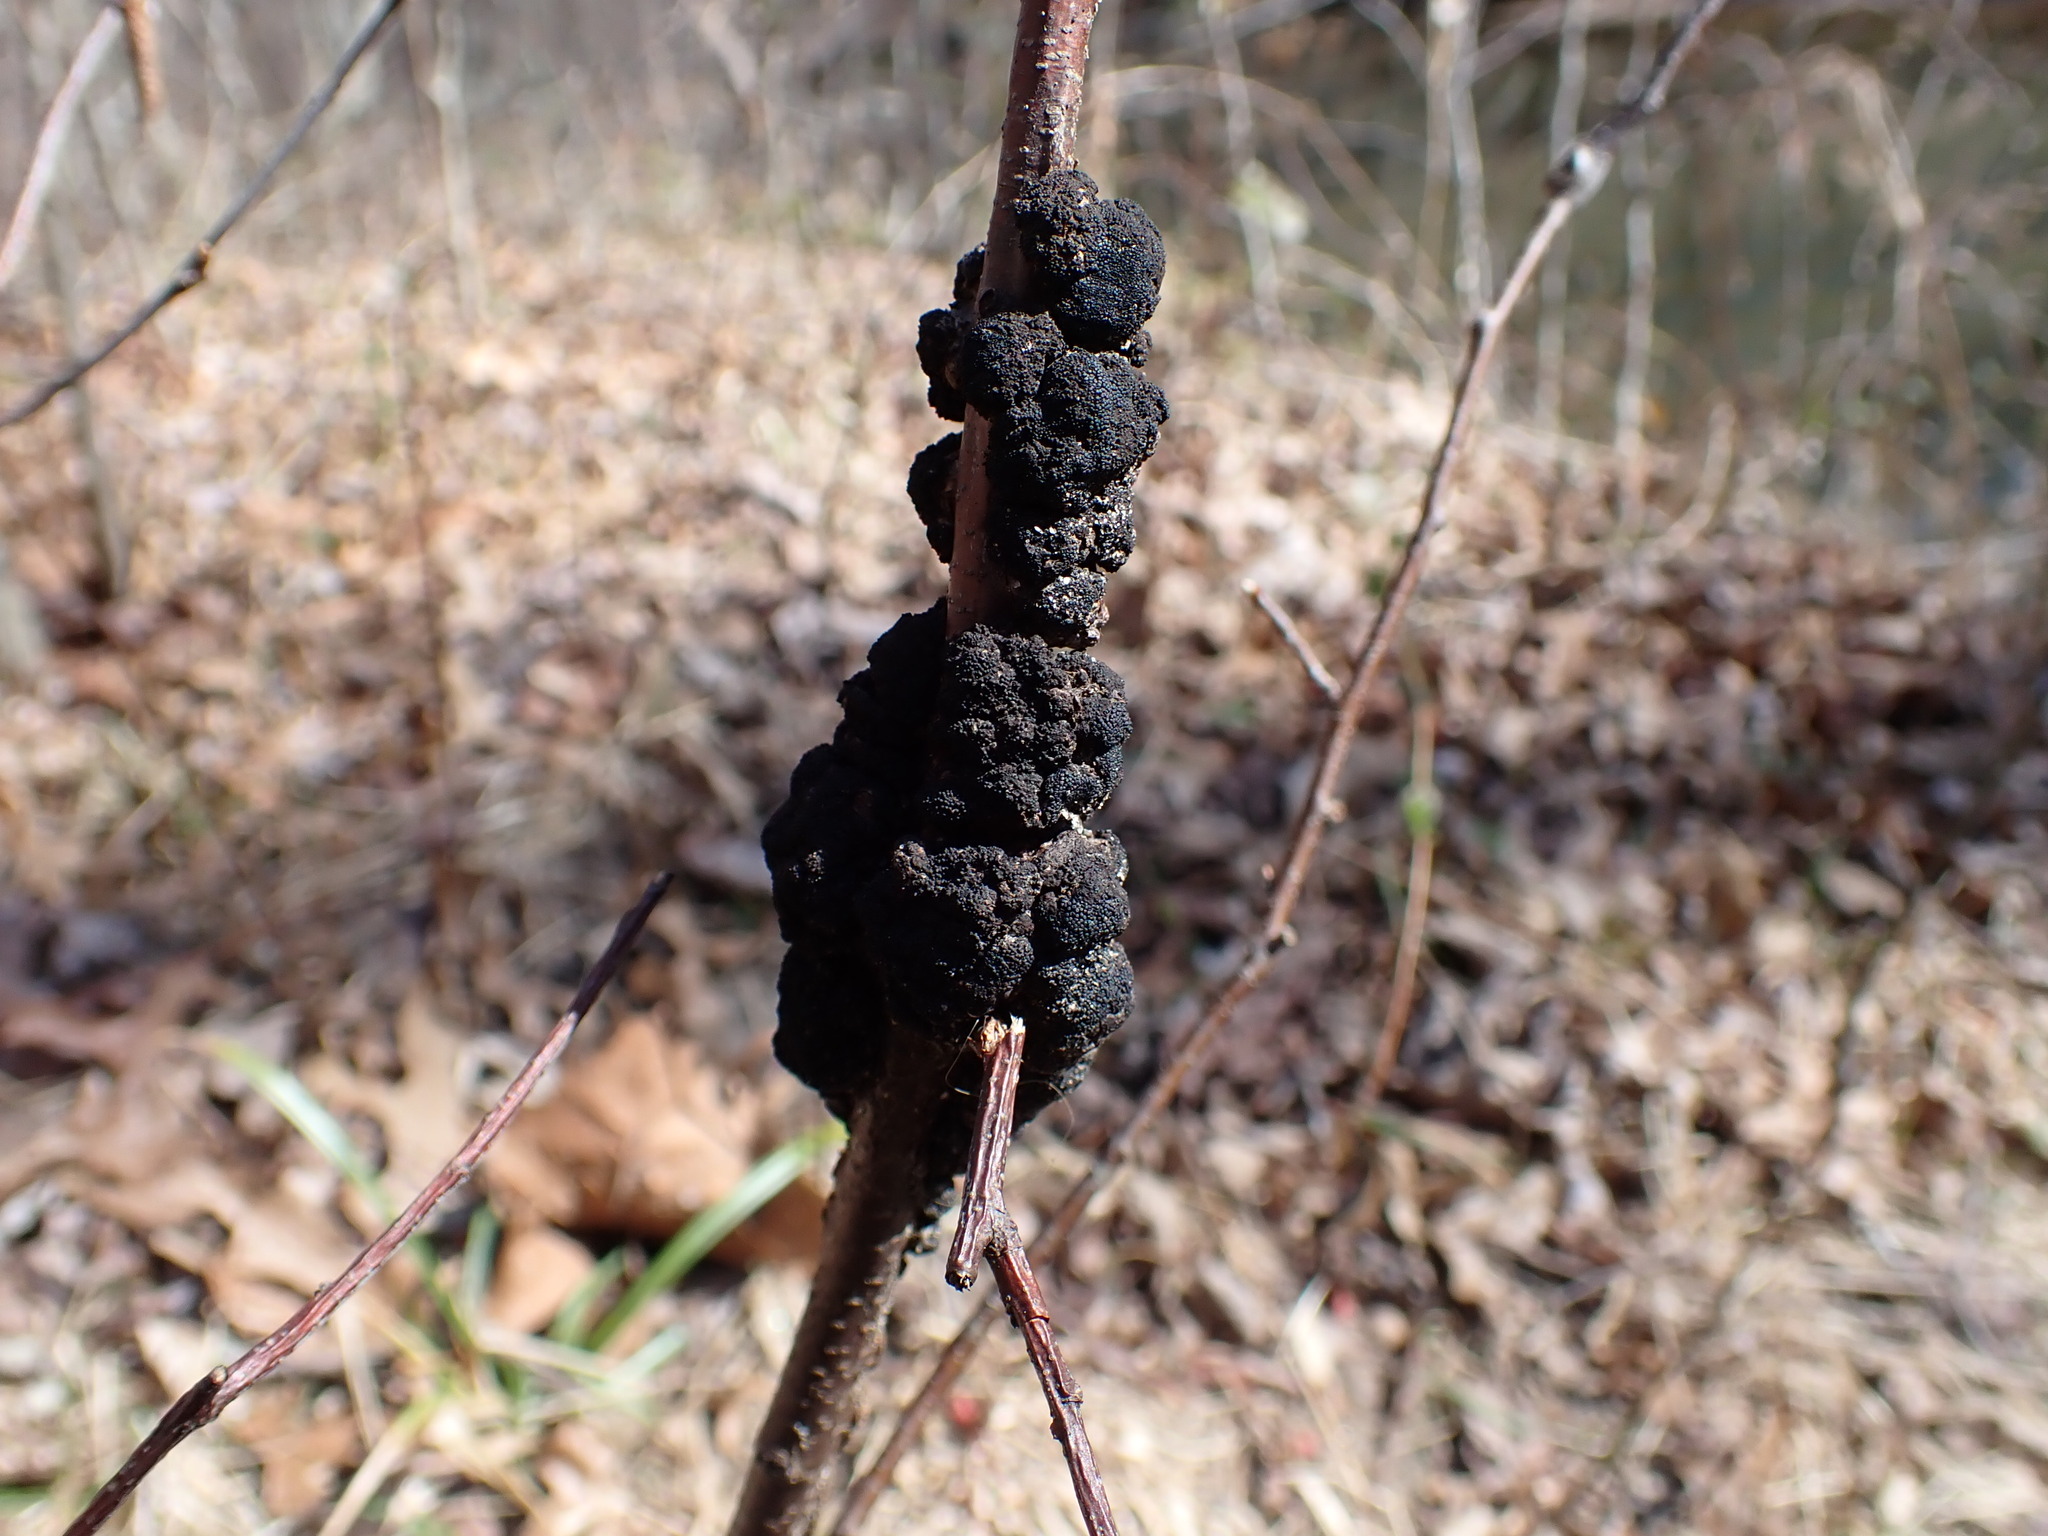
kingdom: Fungi
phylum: Ascomycota
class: Dothideomycetes
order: Venturiales
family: Venturiaceae
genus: Apiosporina
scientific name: Apiosporina morbosa
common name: Black knot
